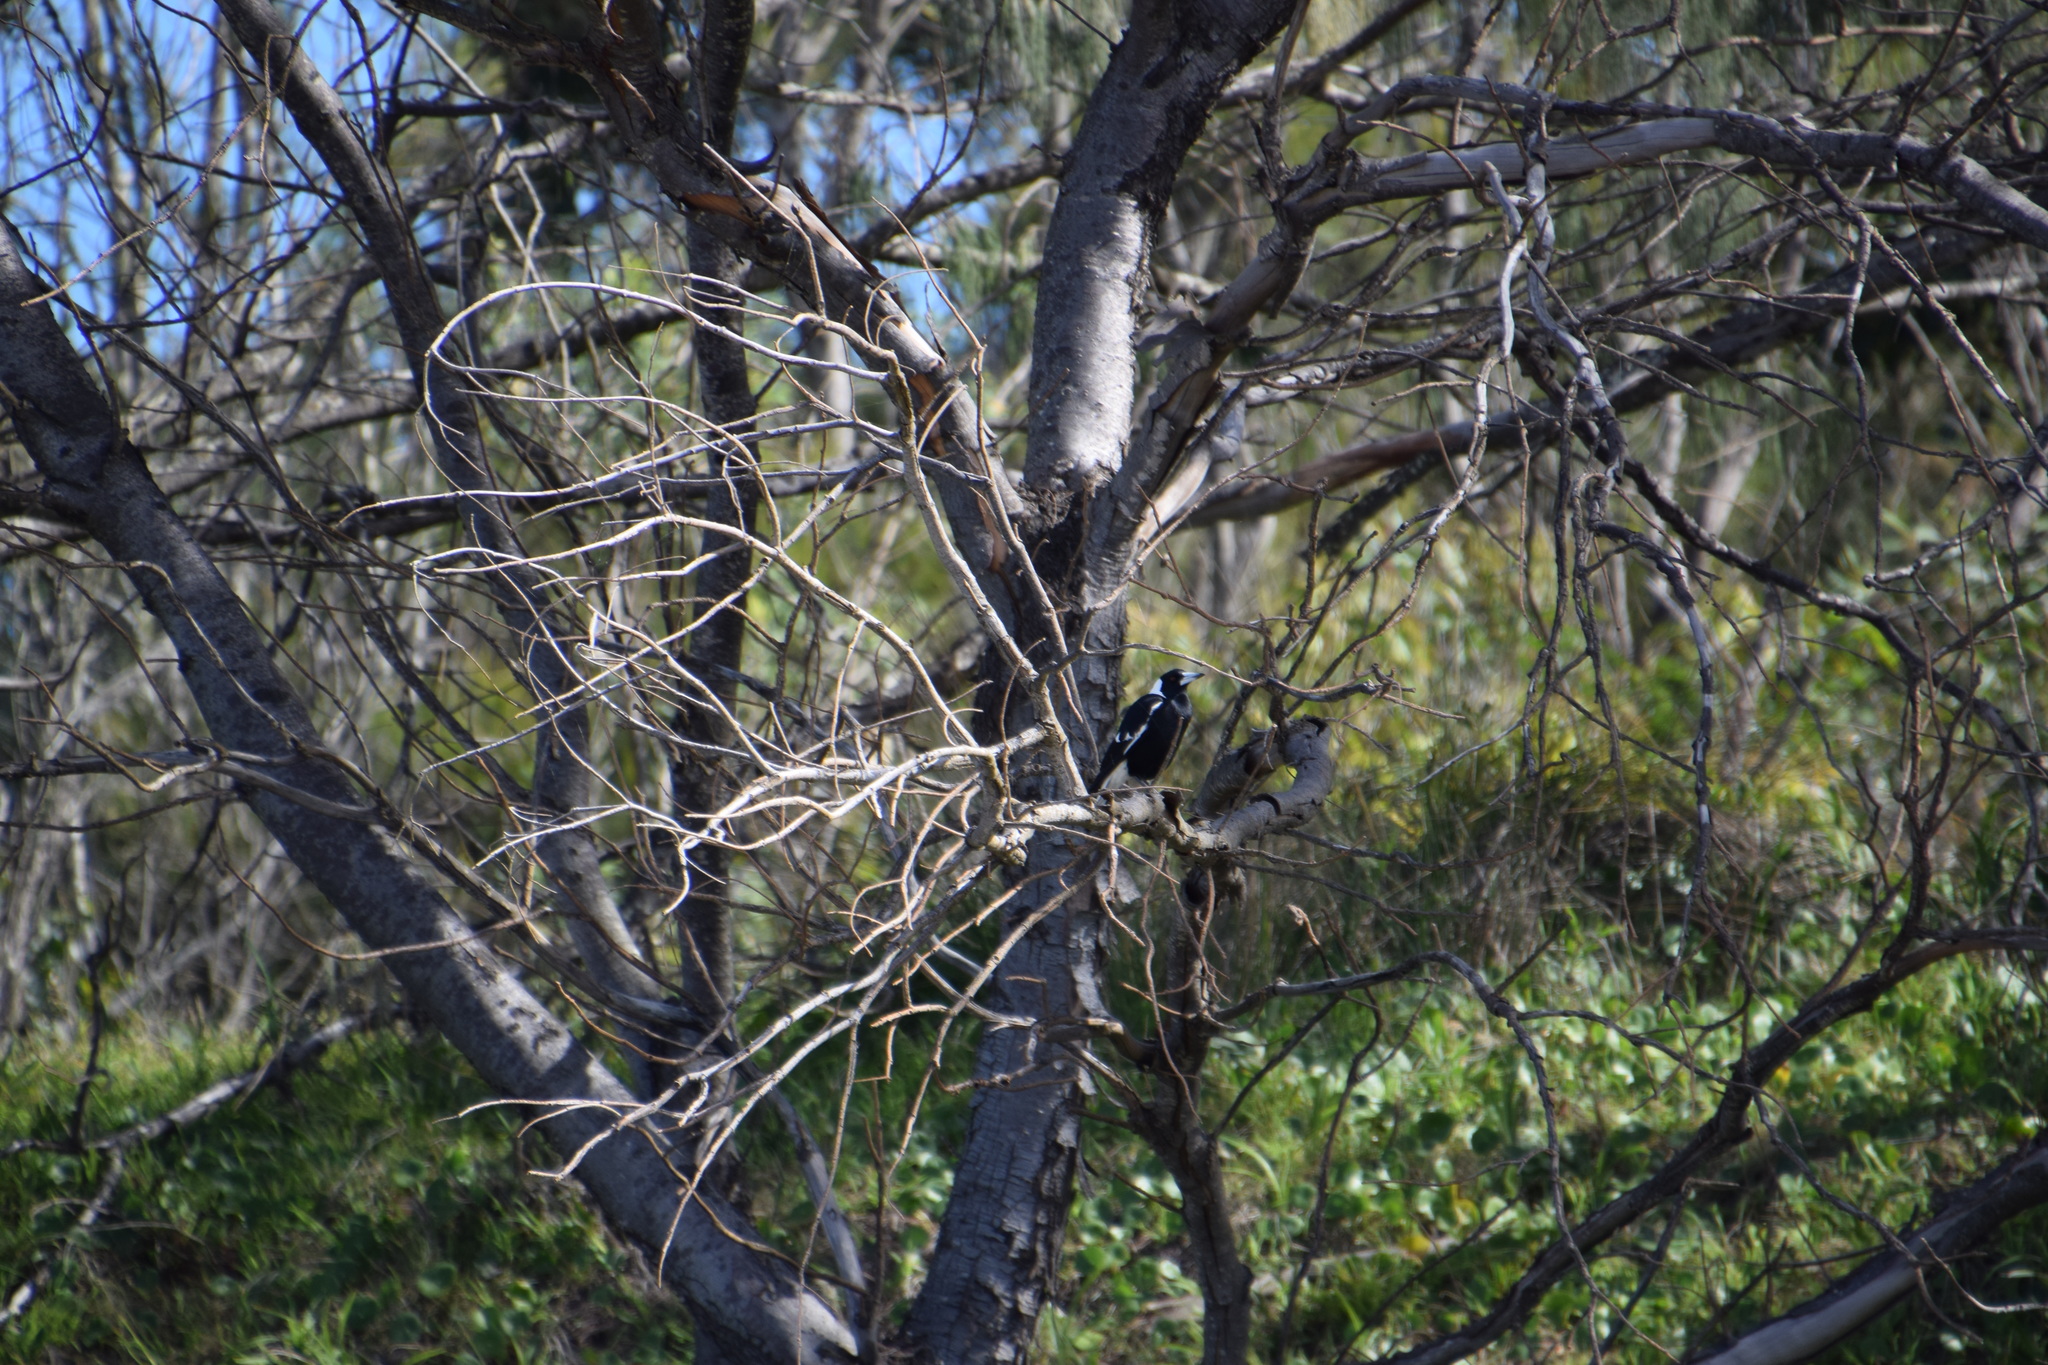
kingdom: Animalia
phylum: Chordata
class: Aves
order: Passeriformes
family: Cracticidae
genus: Gymnorhina
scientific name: Gymnorhina tibicen
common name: Australian magpie
